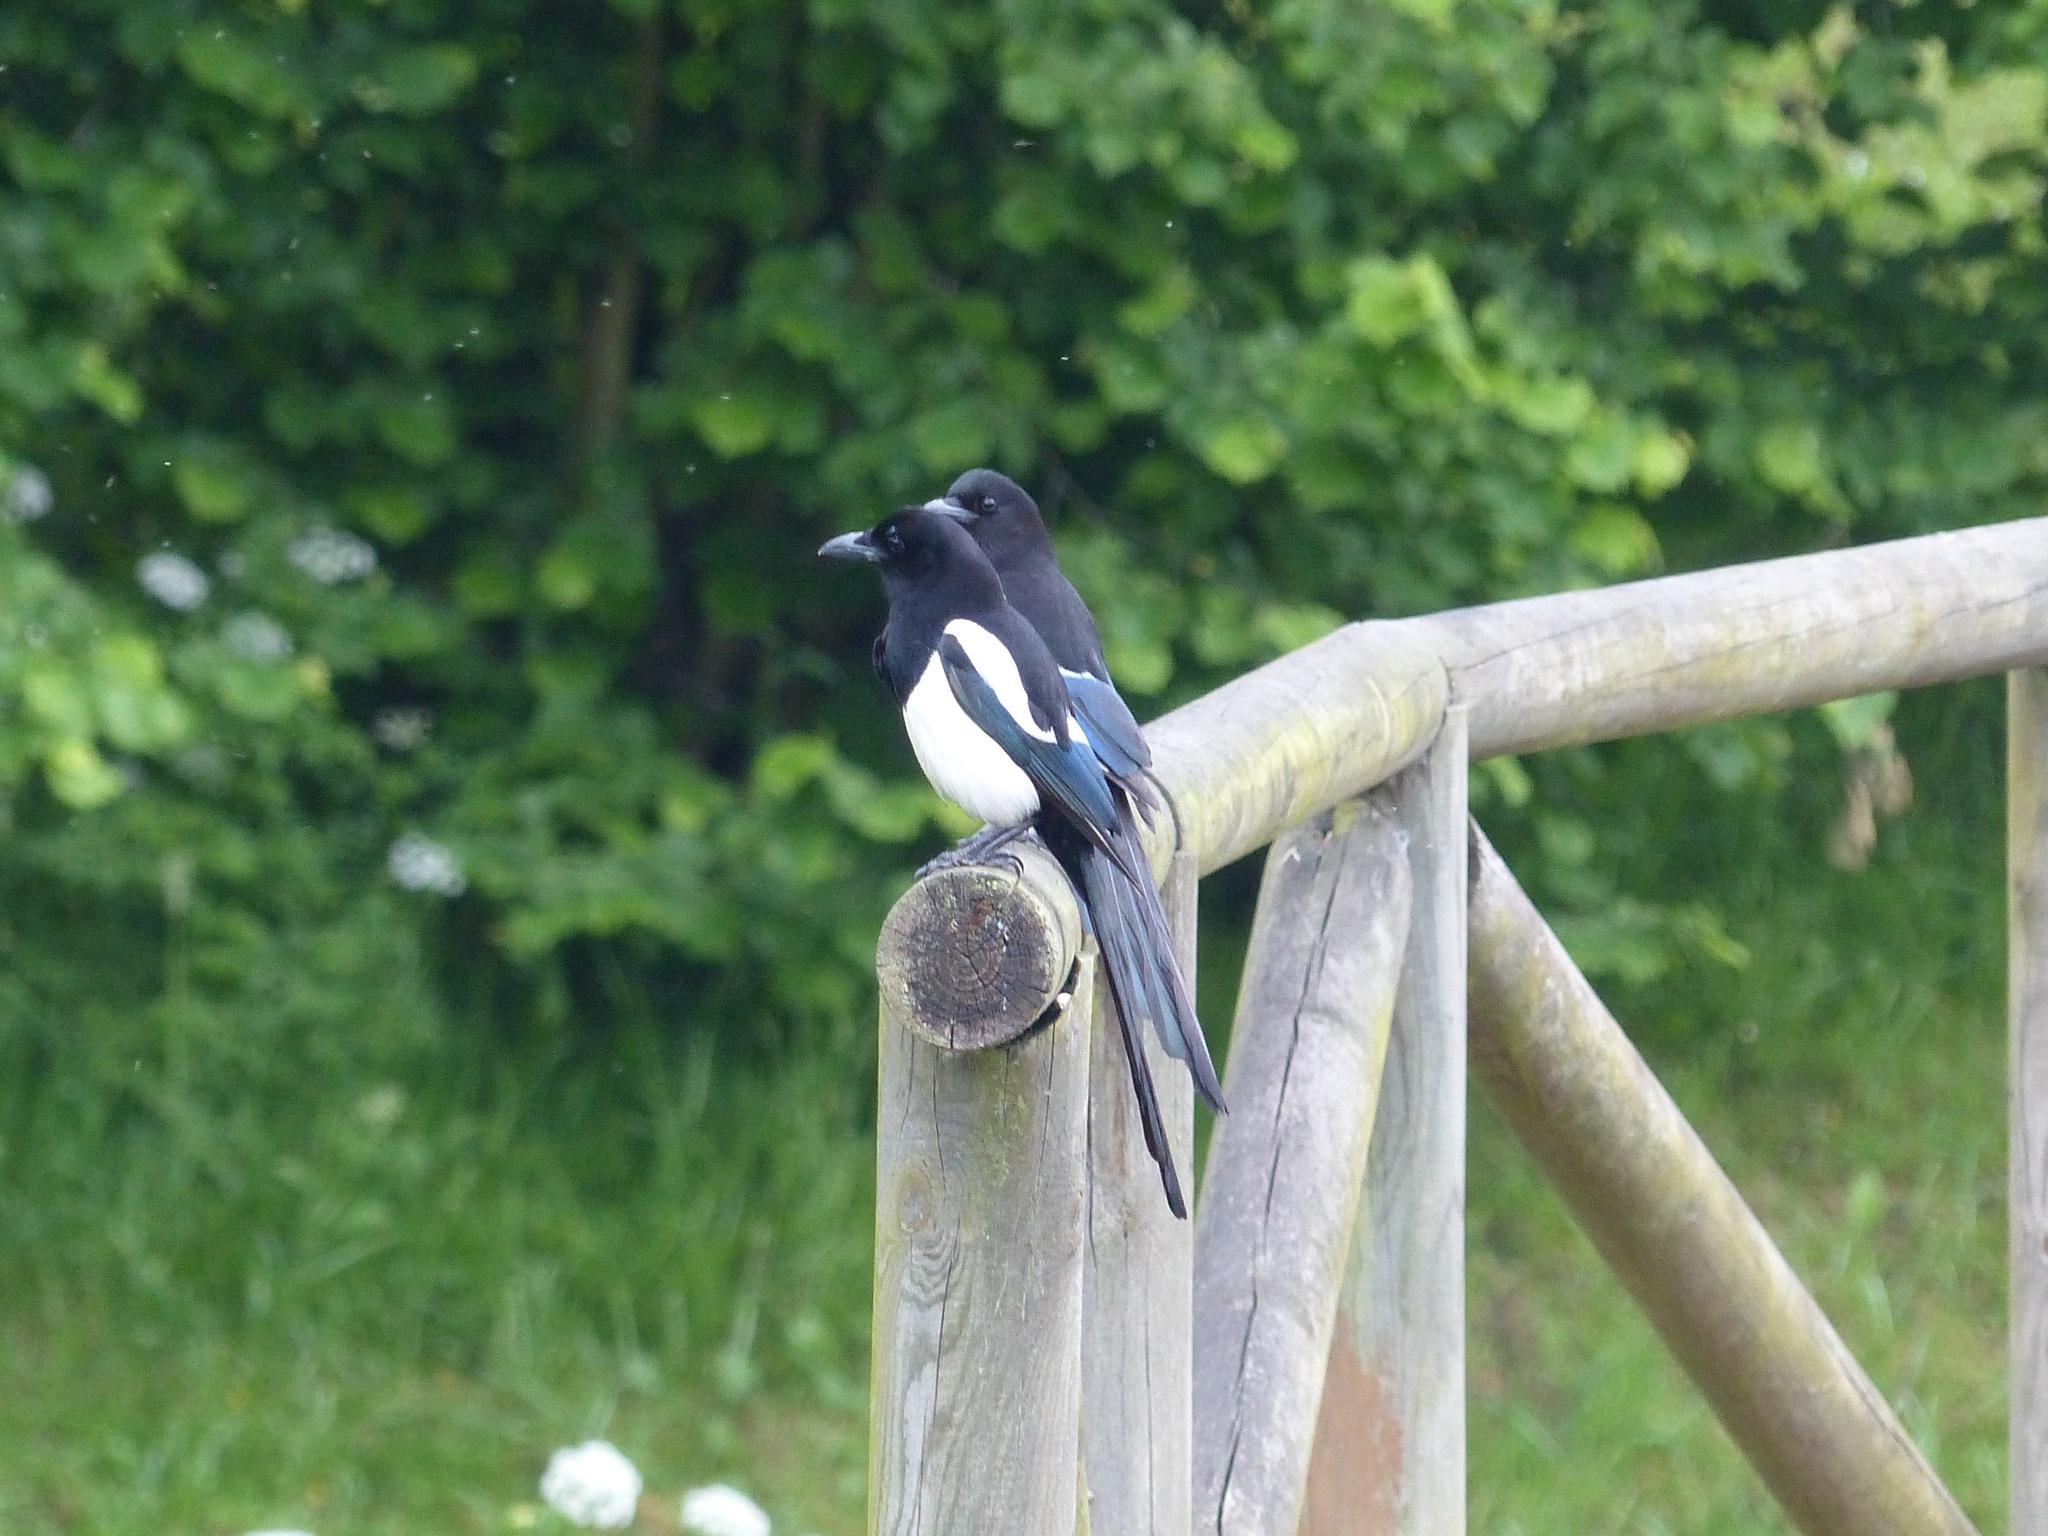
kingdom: Animalia
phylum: Chordata
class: Aves
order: Passeriformes
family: Corvidae
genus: Pica
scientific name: Pica pica
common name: Eurasian magpie
